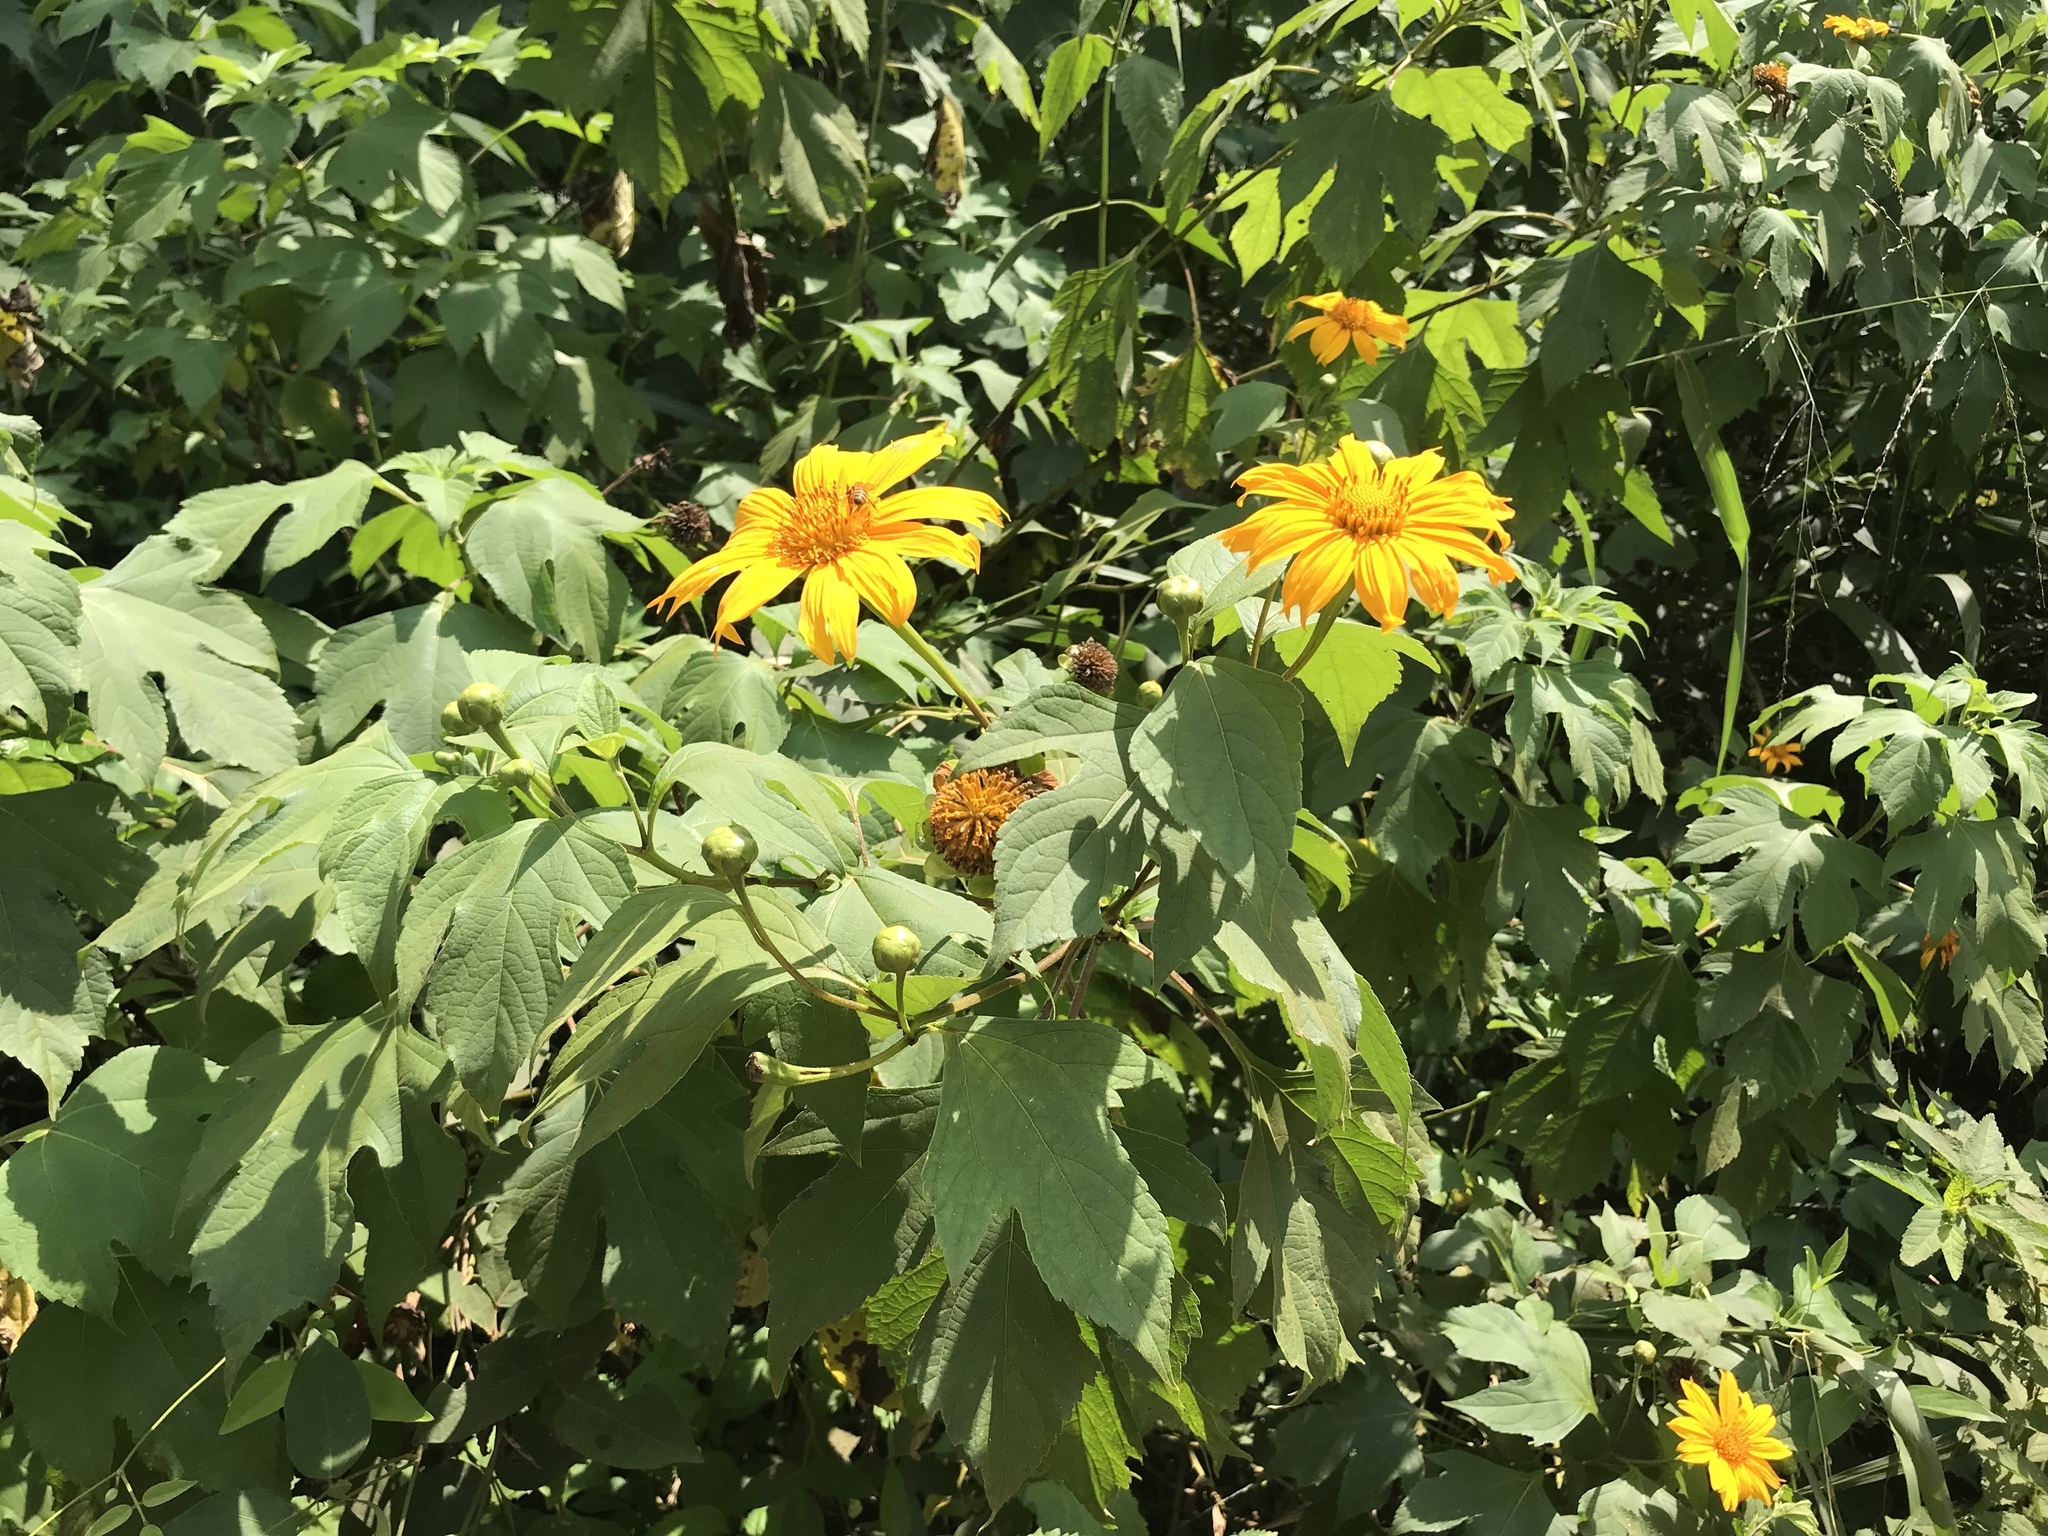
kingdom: Plantae
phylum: Tracheophyta
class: Magnoliopsida
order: Asterales
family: Asteraceae
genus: Tithonia
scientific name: Tithonia diversifolia
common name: Tree marigold
